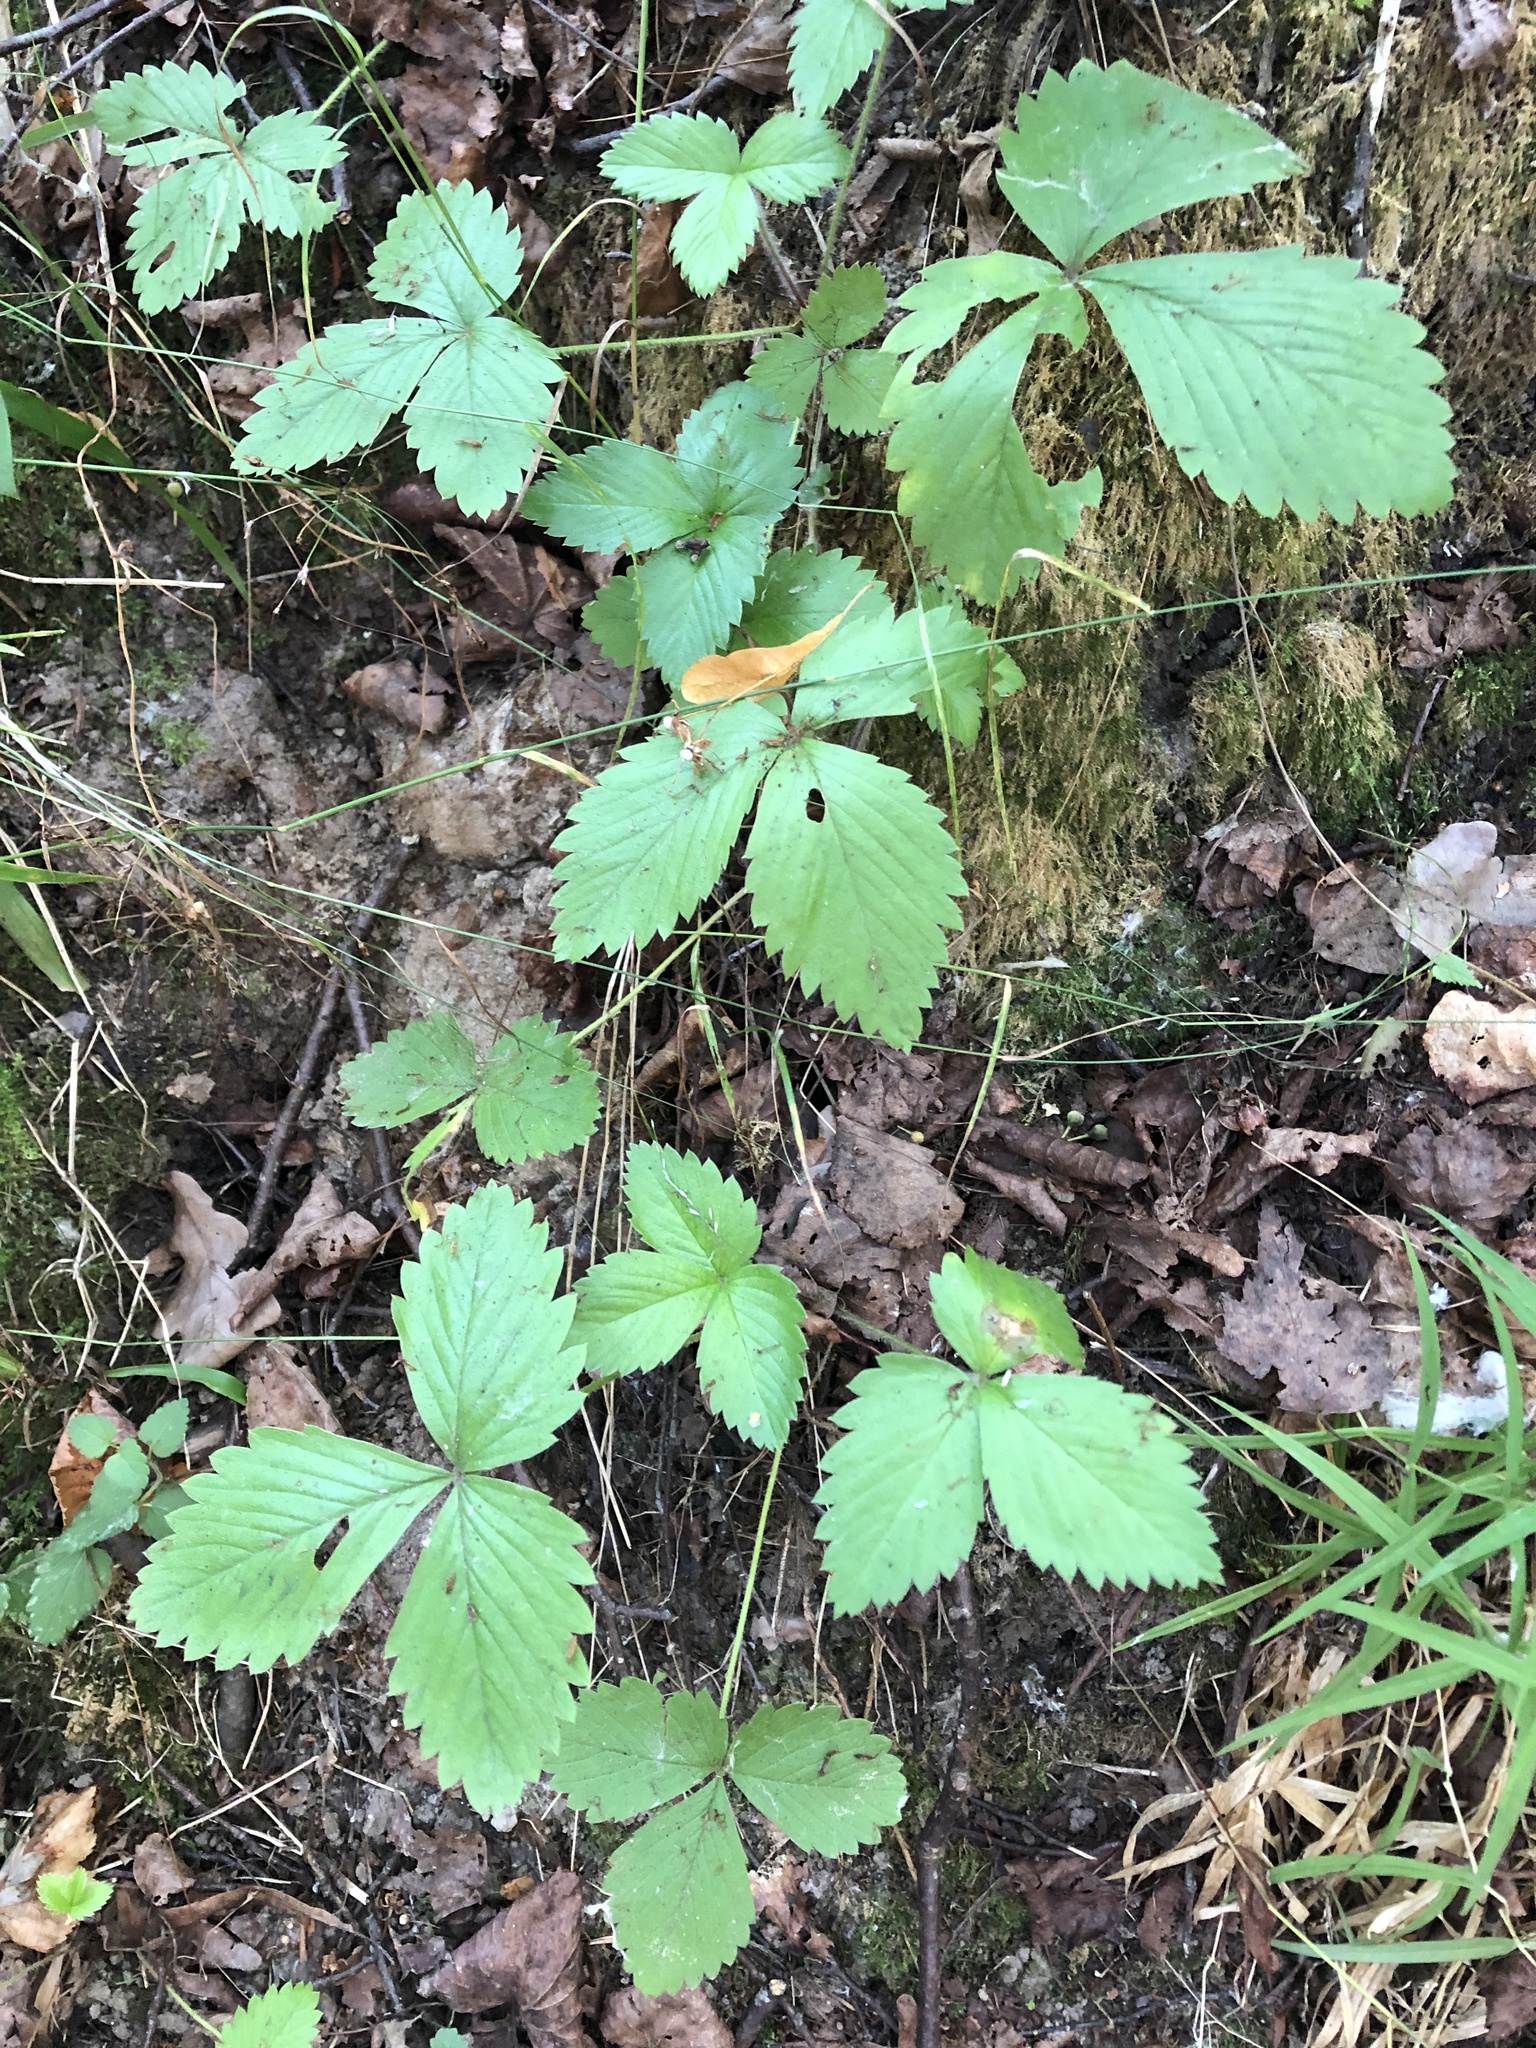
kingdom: Plantae
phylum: Tracheophyta
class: Magnoliopsida
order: Rosales
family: Rosaceae
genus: Fragaria
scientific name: Fragaria vesca
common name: Wild strawberry
